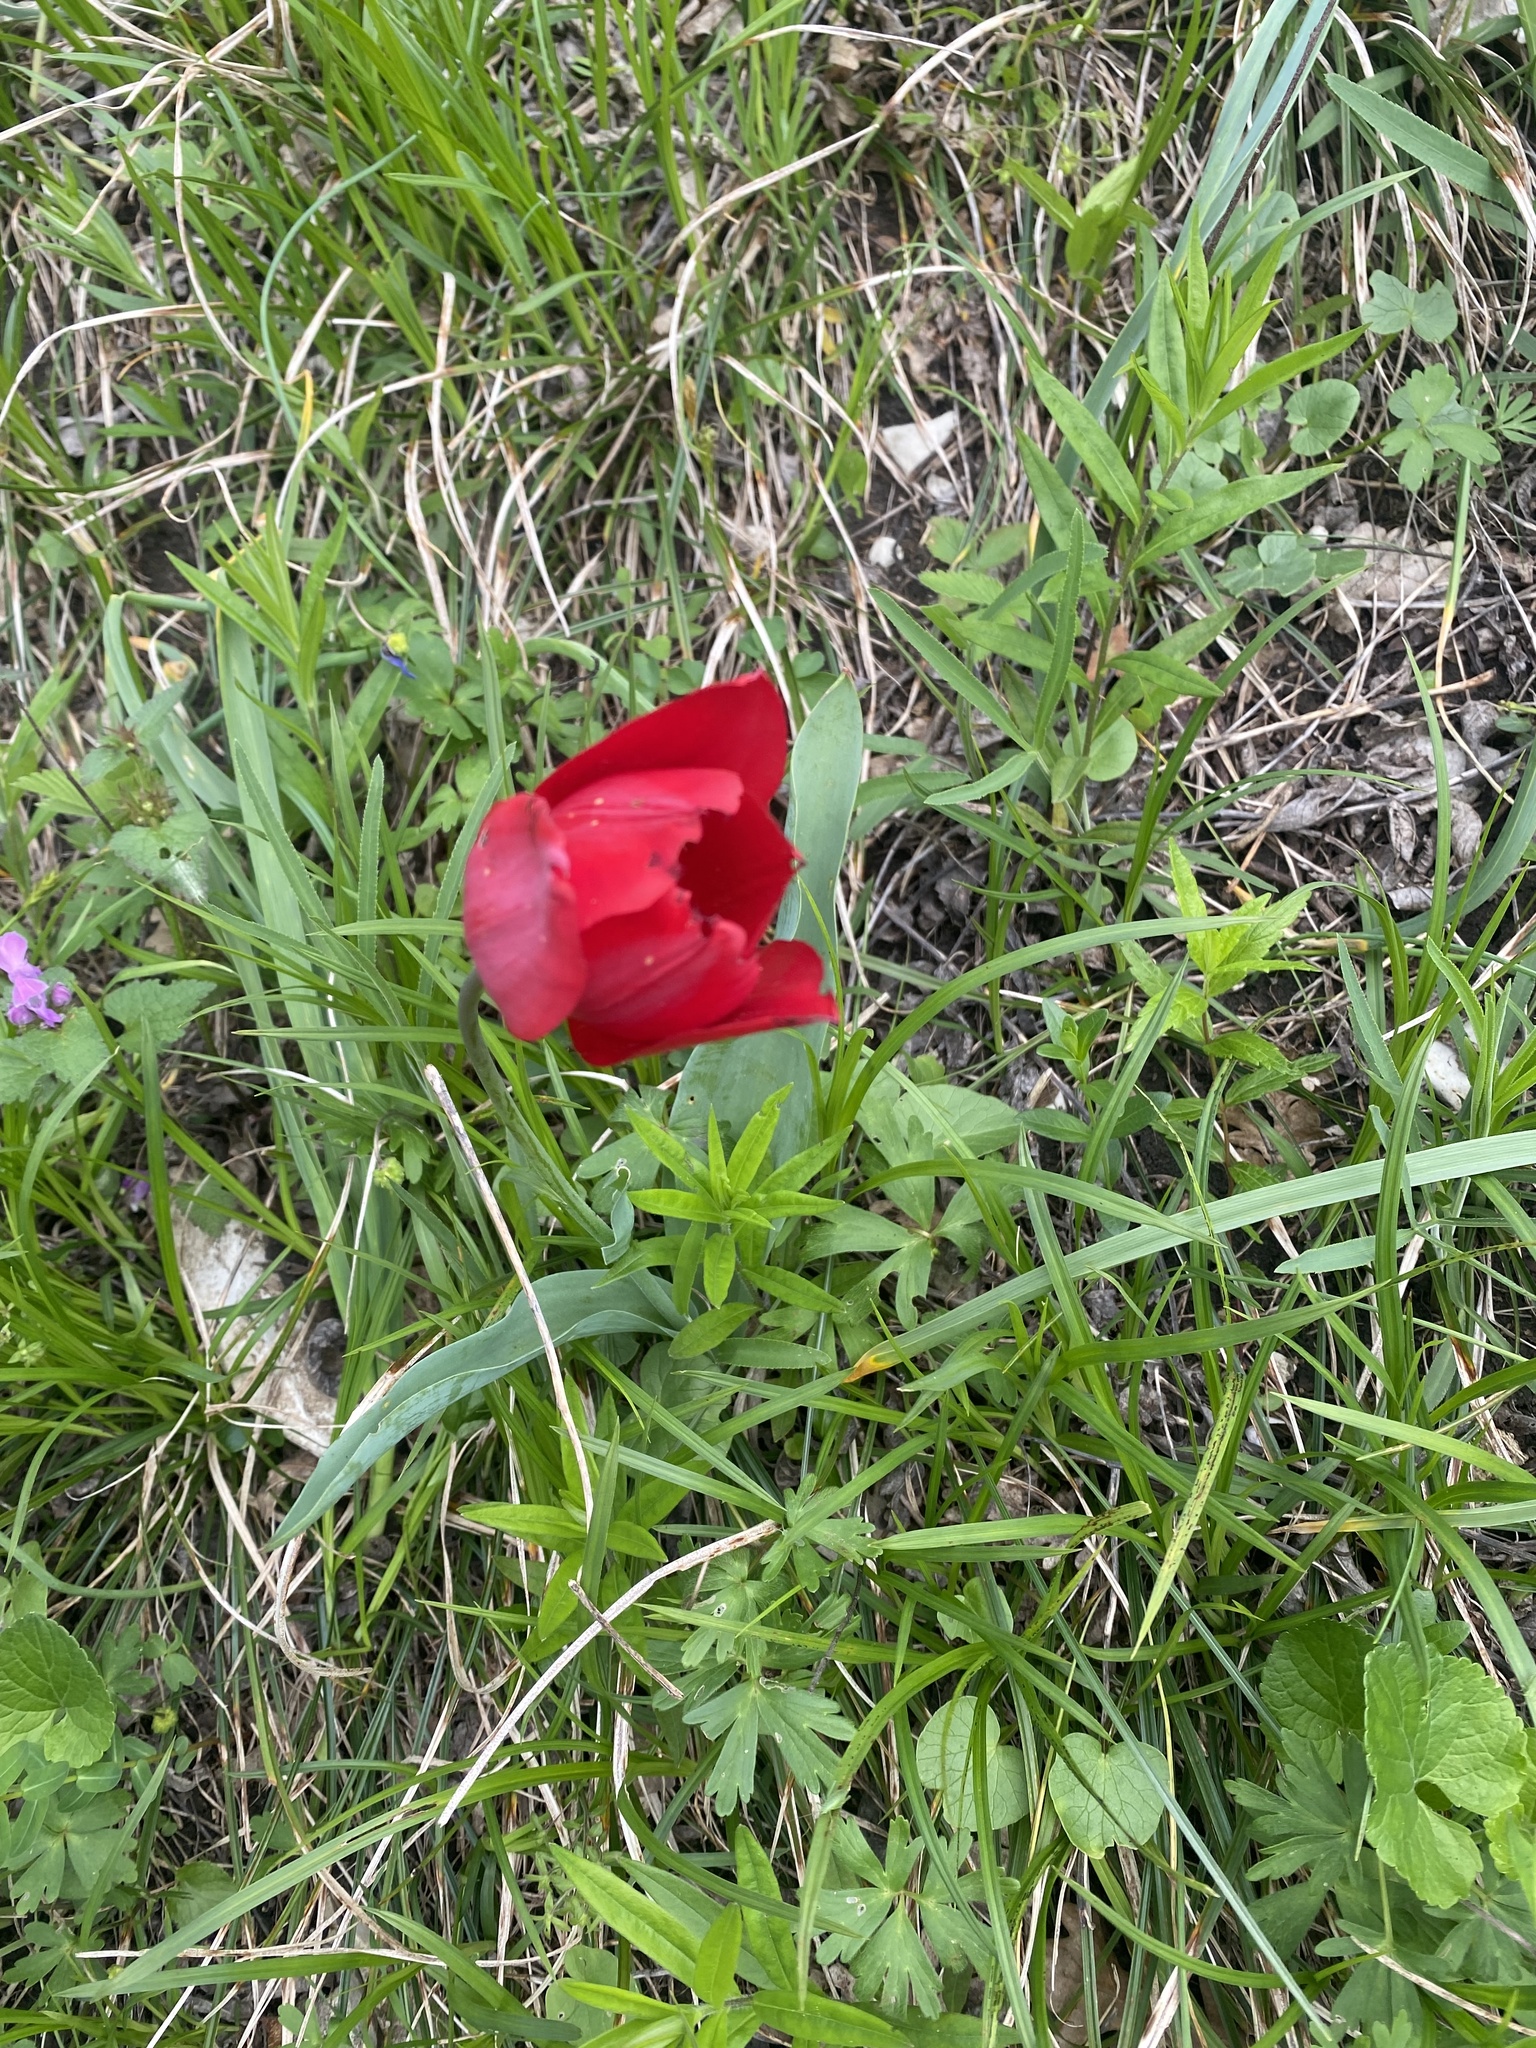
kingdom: Plantae
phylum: Tracheophyta
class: Liliopsida
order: Liliales
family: Liliaceae
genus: Tulipa
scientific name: Tulipa suaveolens
